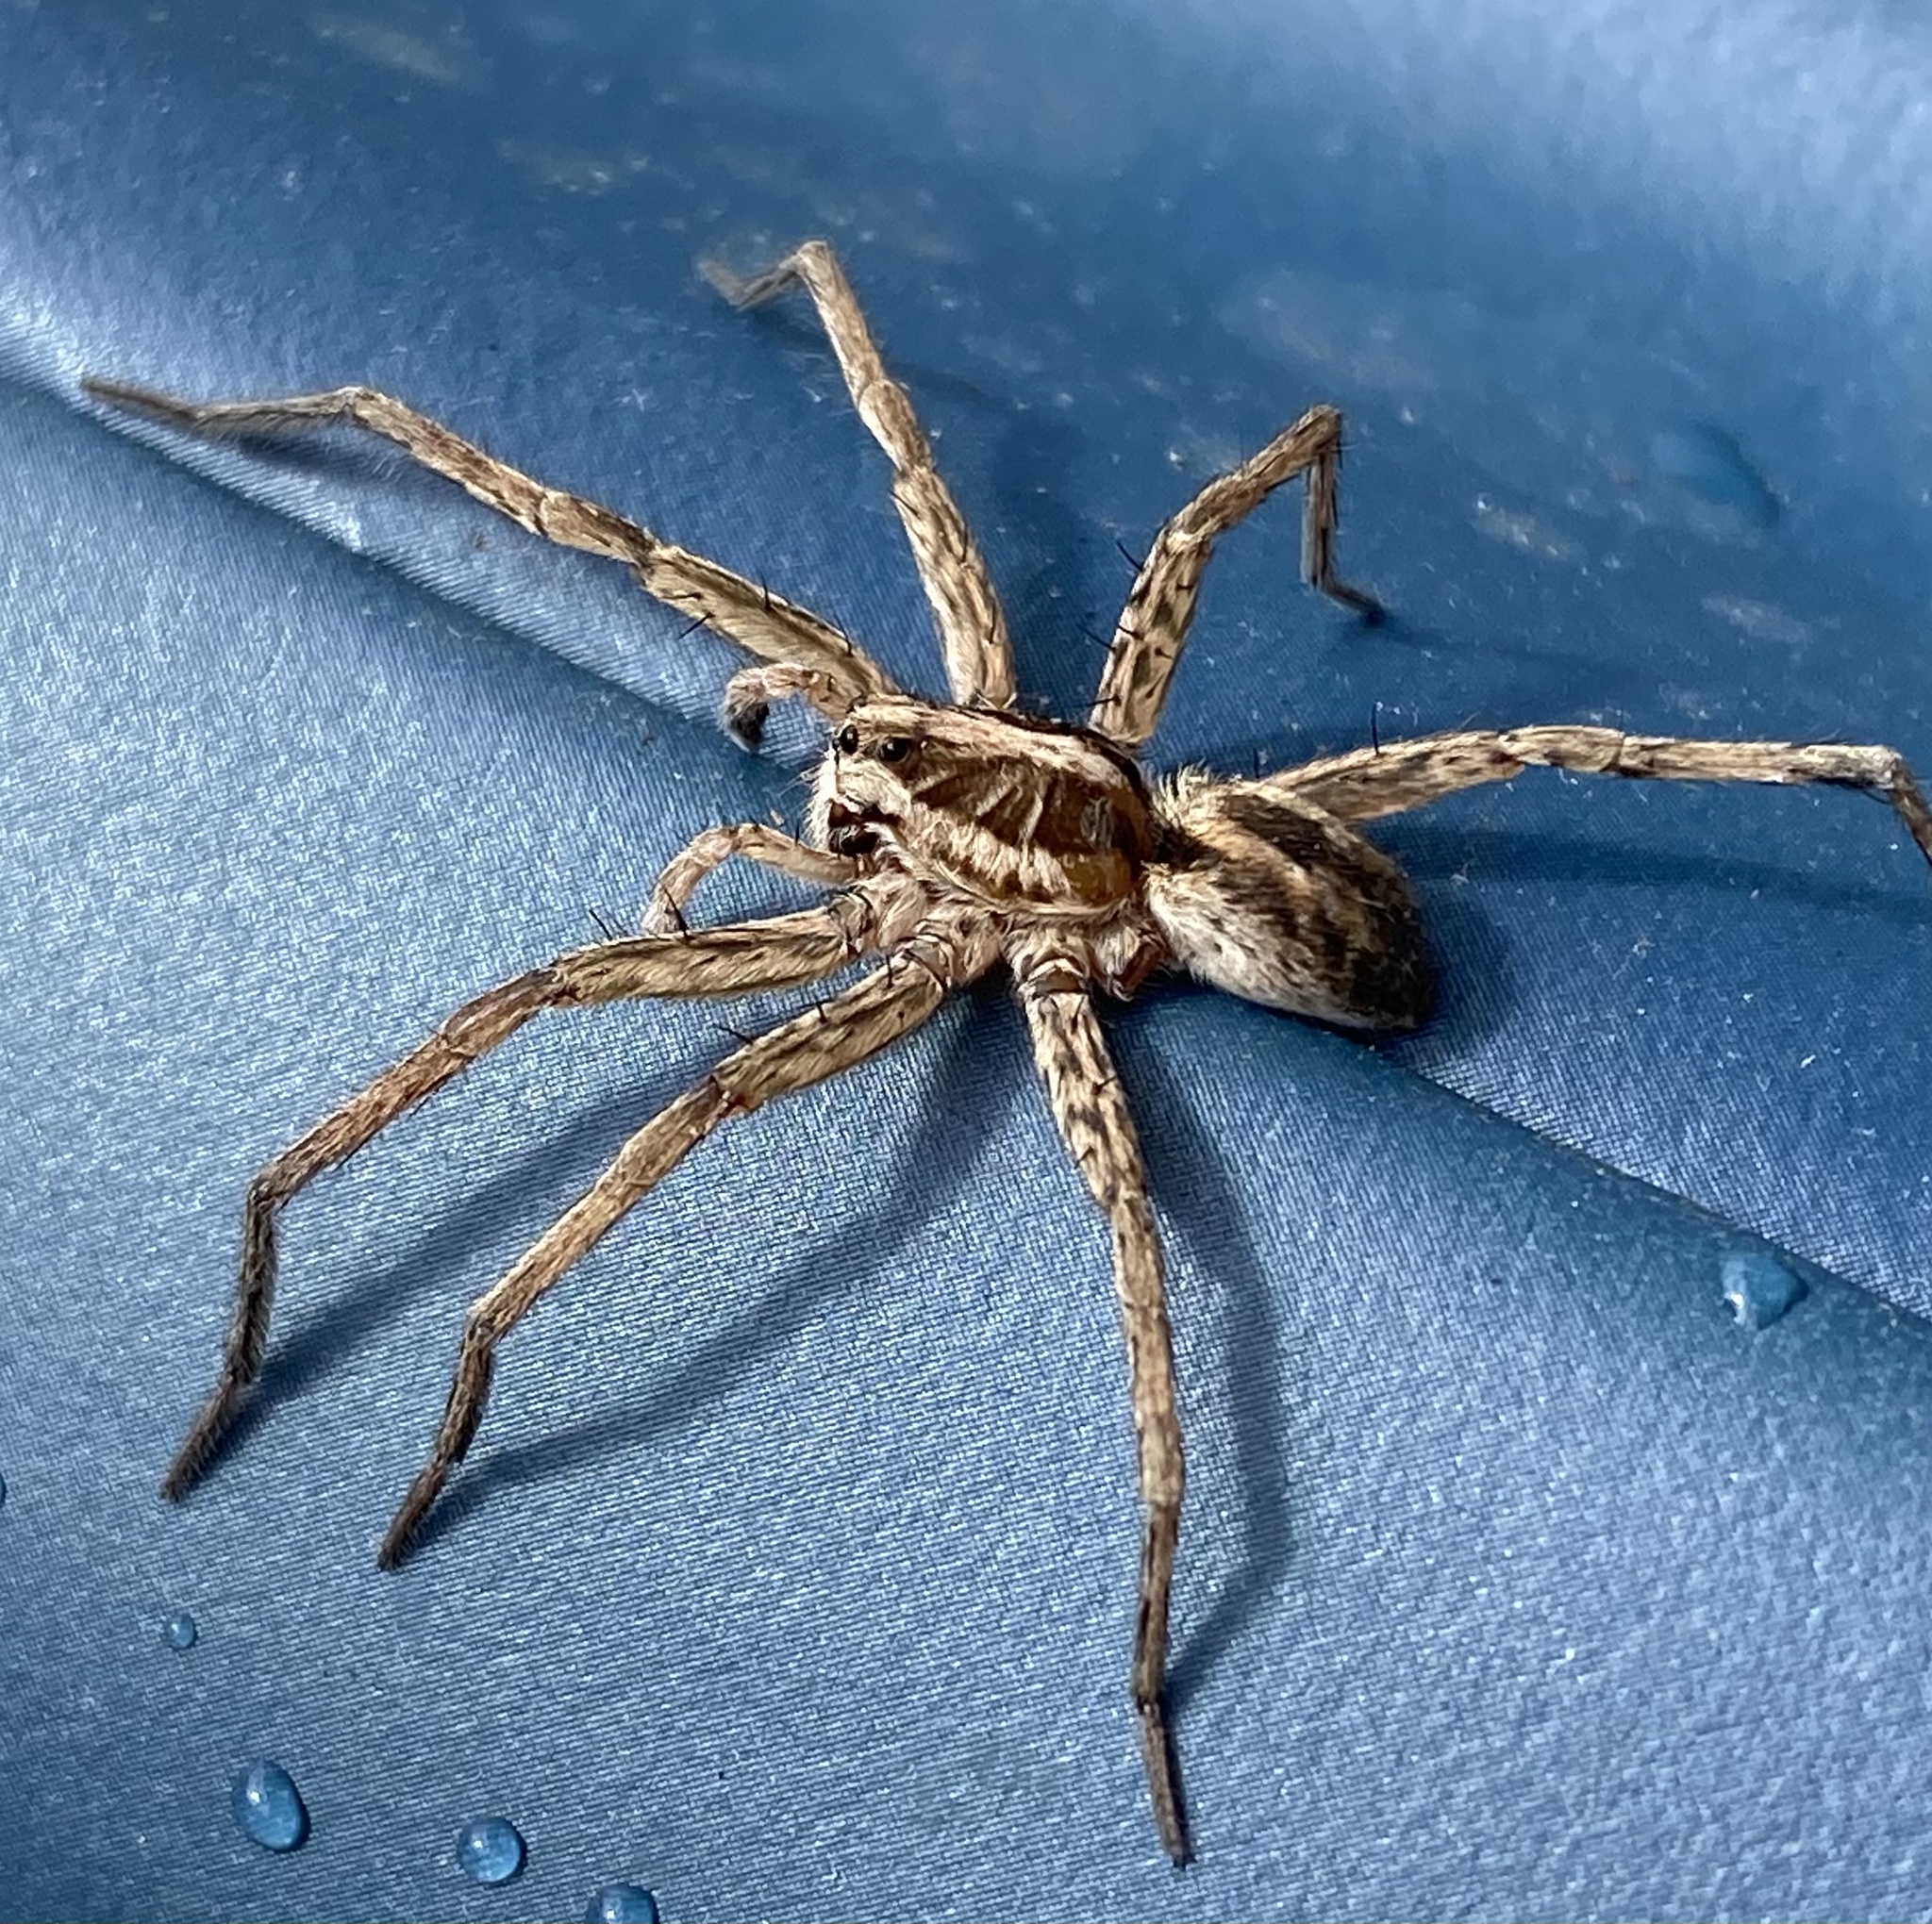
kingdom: Animalia
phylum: Arthropoda
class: Arachnida
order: Araneae
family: Lycosidae
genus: Hogna
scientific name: Hogna radiata
